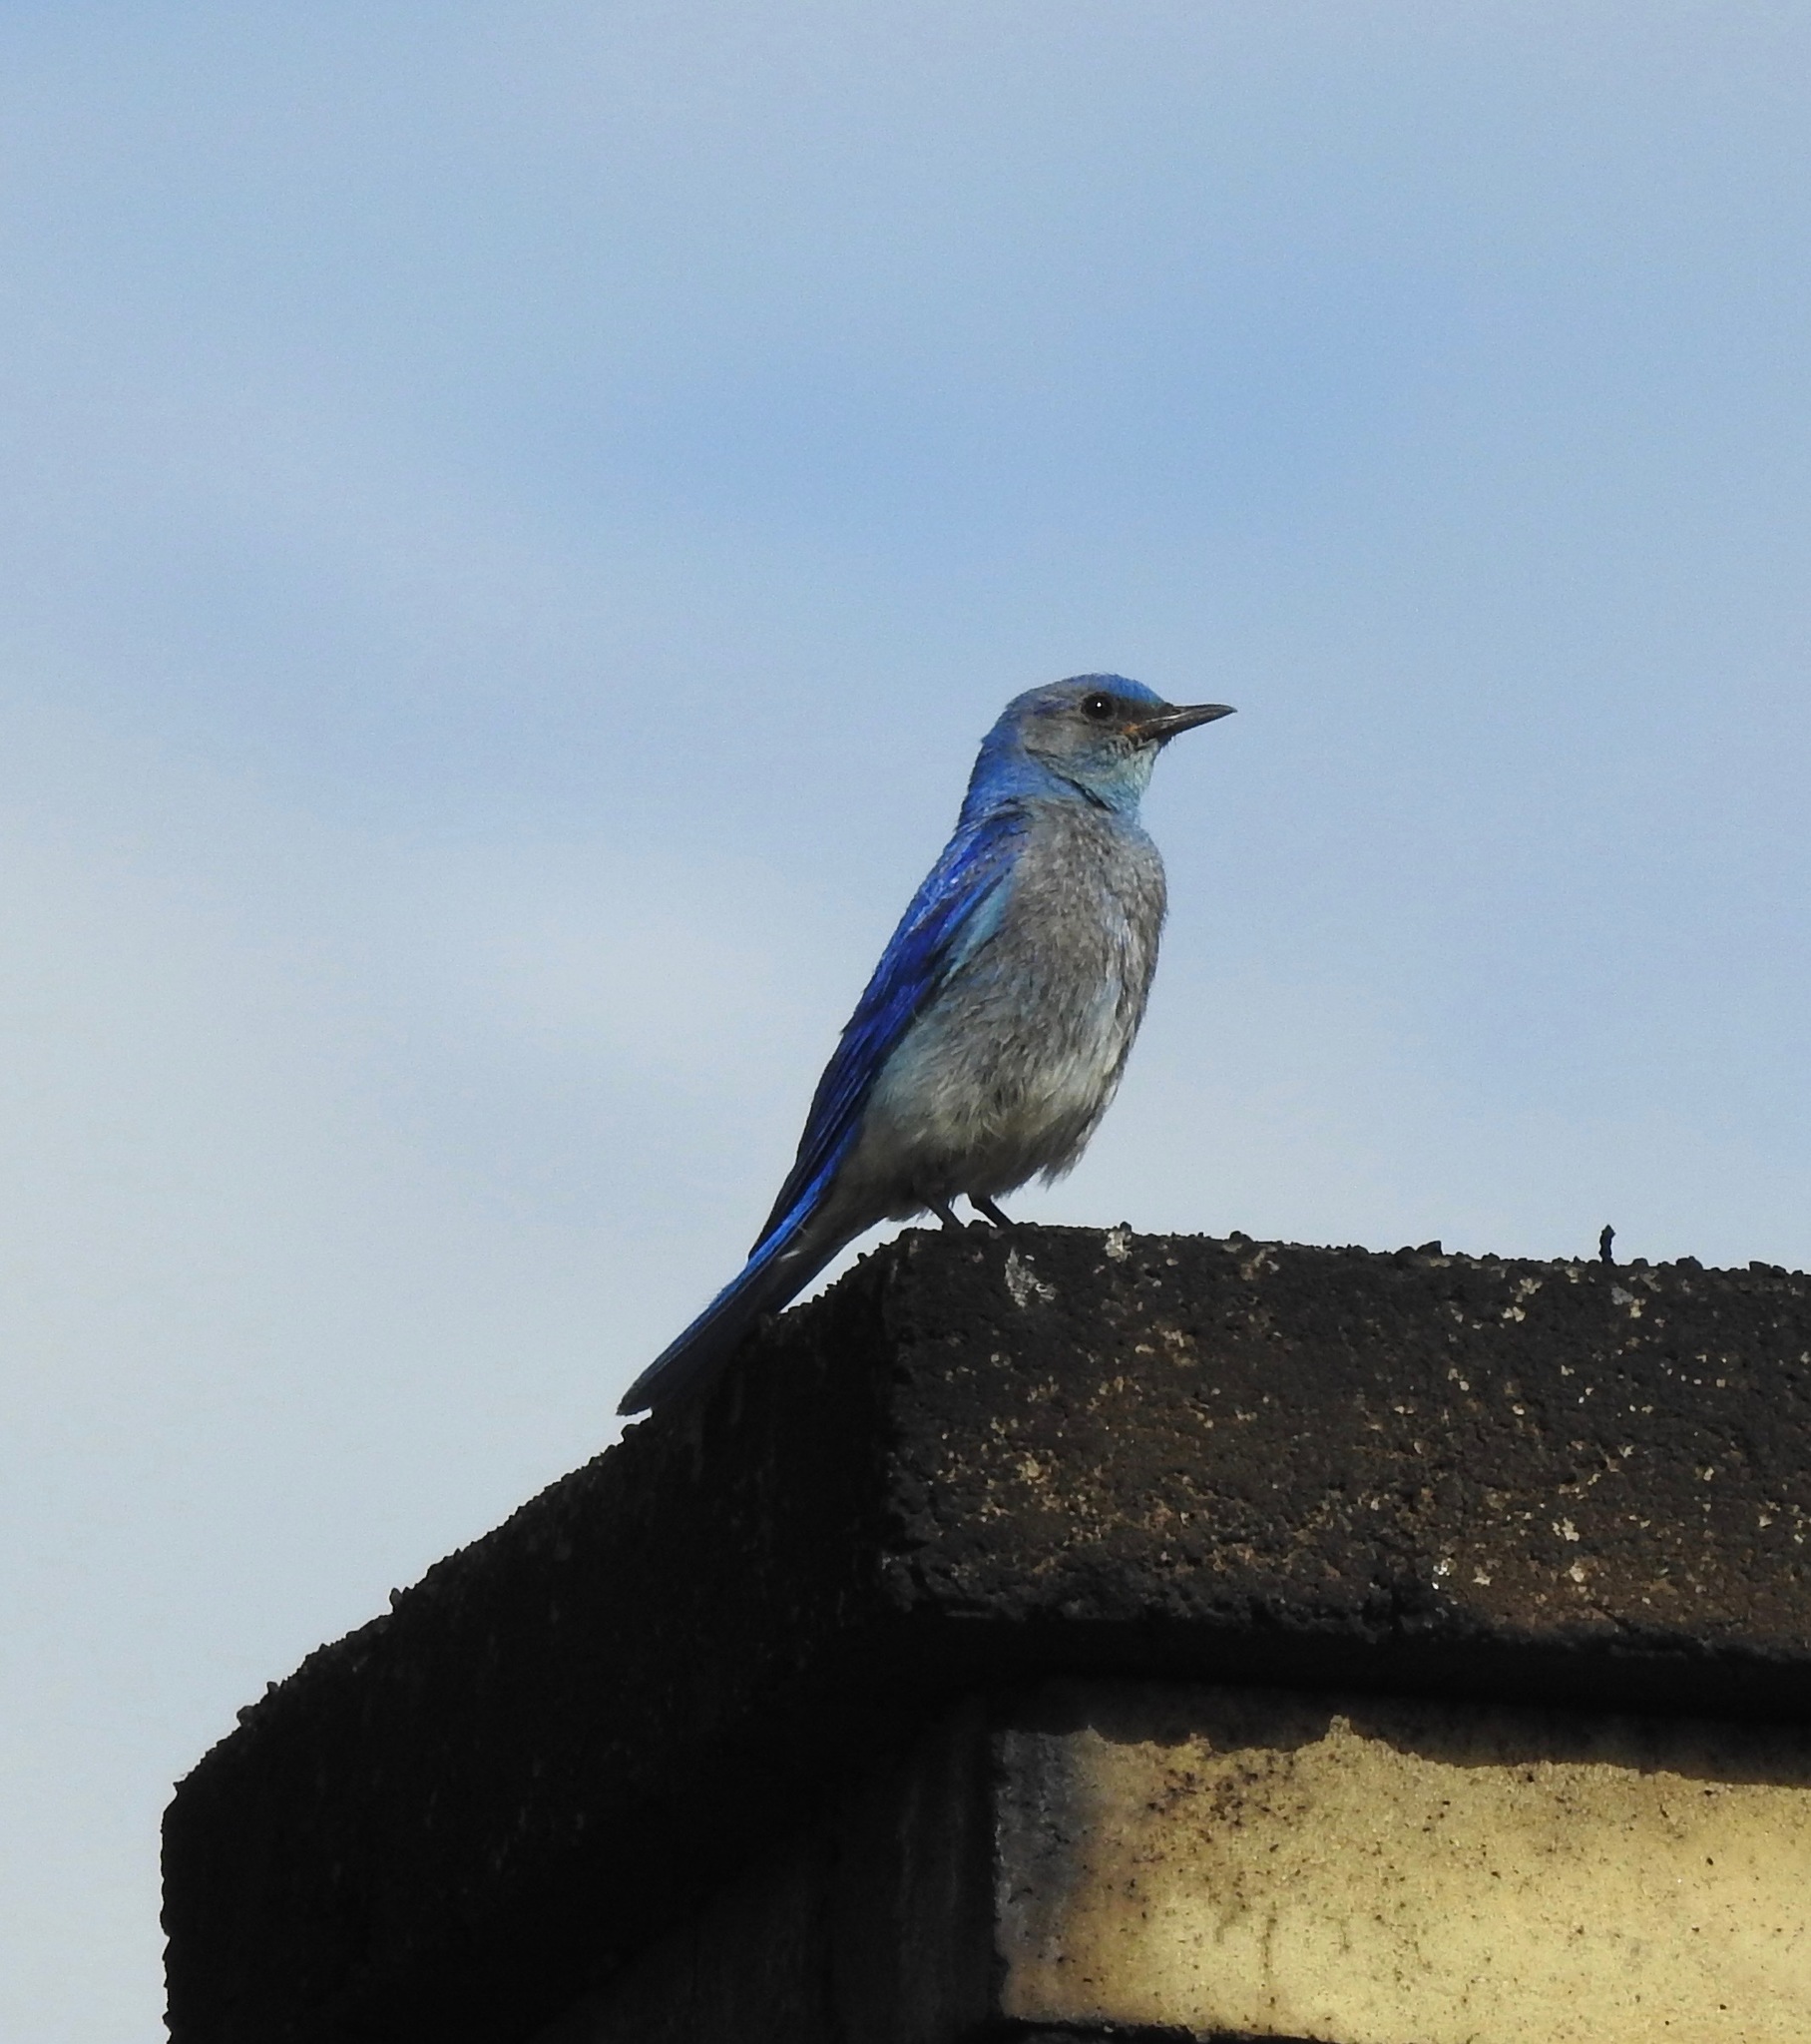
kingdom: Animalia
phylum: Chordata
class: Aves
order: Passeriformes
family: Turdidae
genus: Sialia
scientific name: Sialia currucoides
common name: Mountain bluebird
